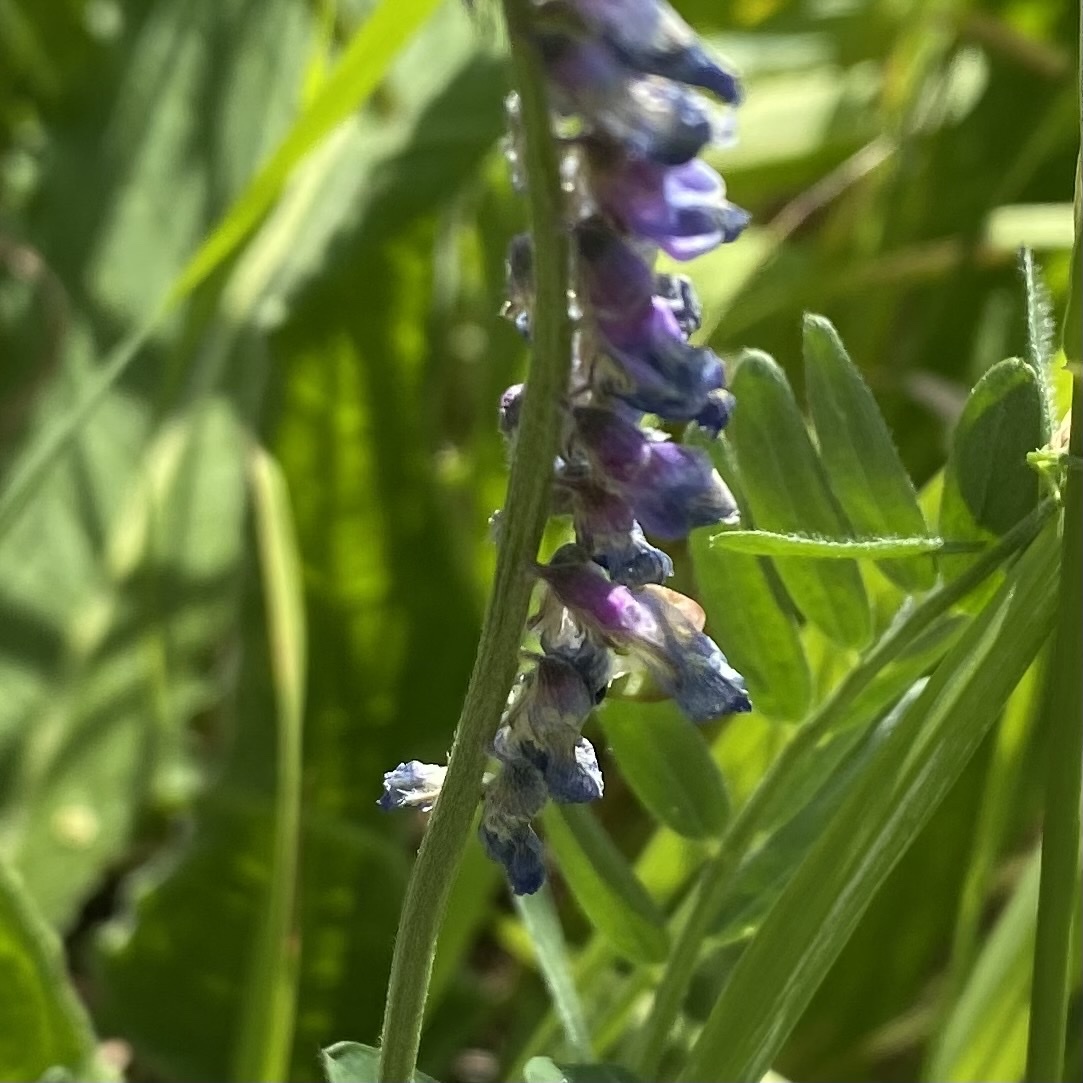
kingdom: Plantae
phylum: Tracheophyta
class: Magnoliopsida
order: Fabales
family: Fabaceae
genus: Vicia
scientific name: Vicia cracca
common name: Bird vetch
